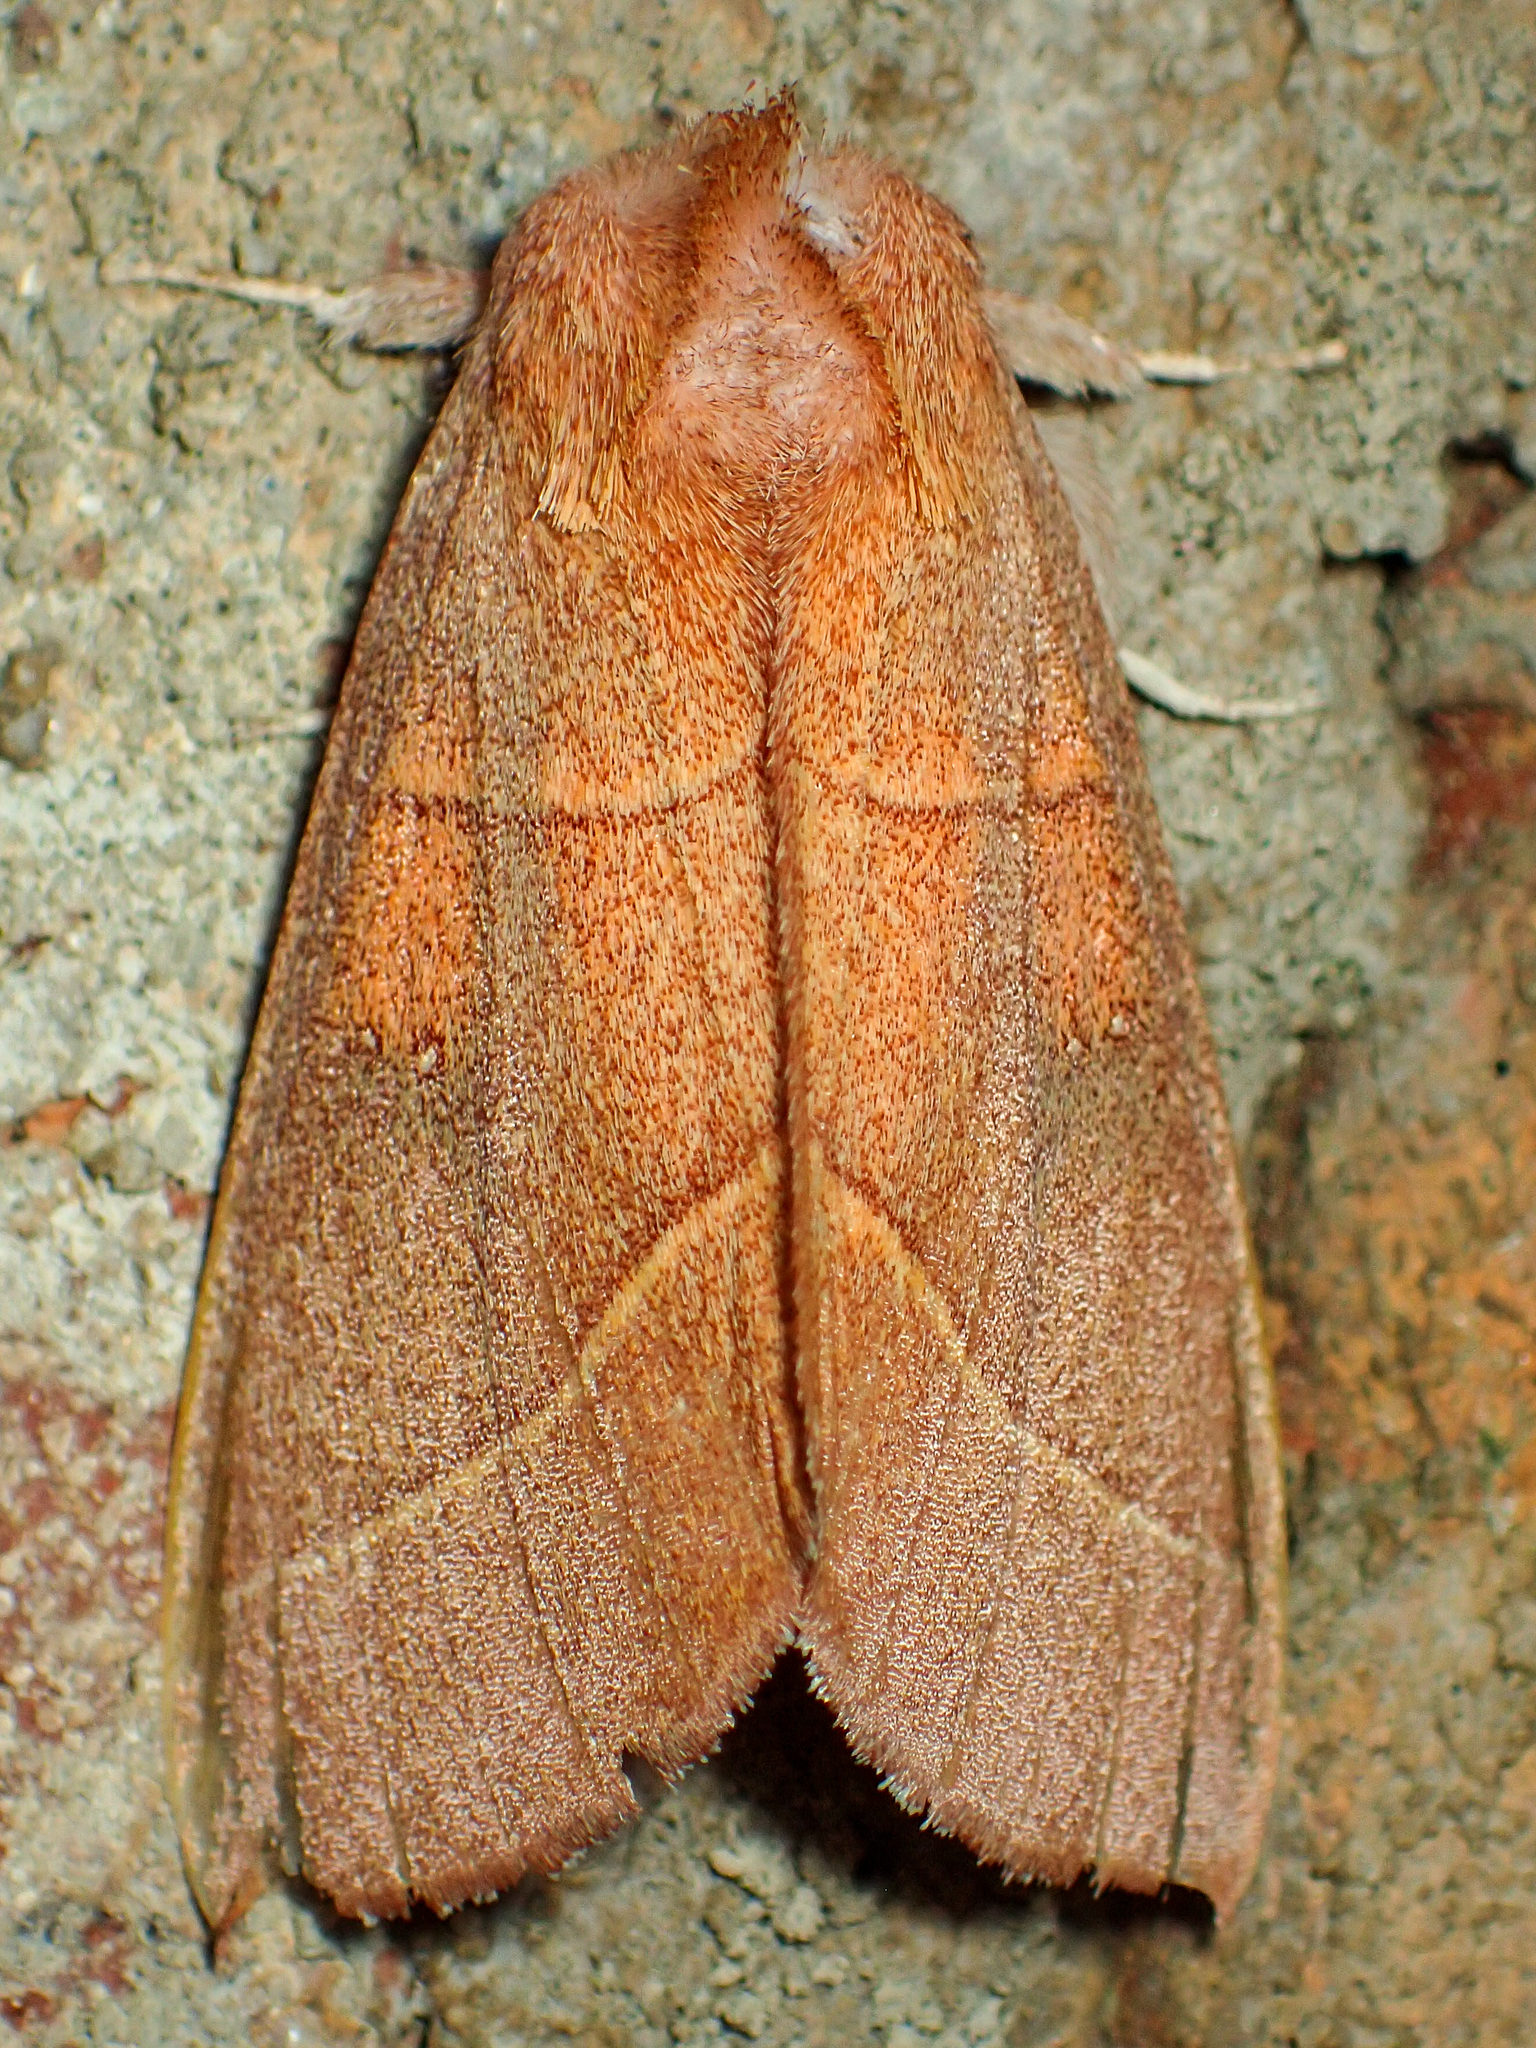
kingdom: Animalia
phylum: Arthropoda
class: Insecta
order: Lepidoptera
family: Notodontidae
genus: Nadata
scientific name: Nadata gibbosa
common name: White-dotted prominent
